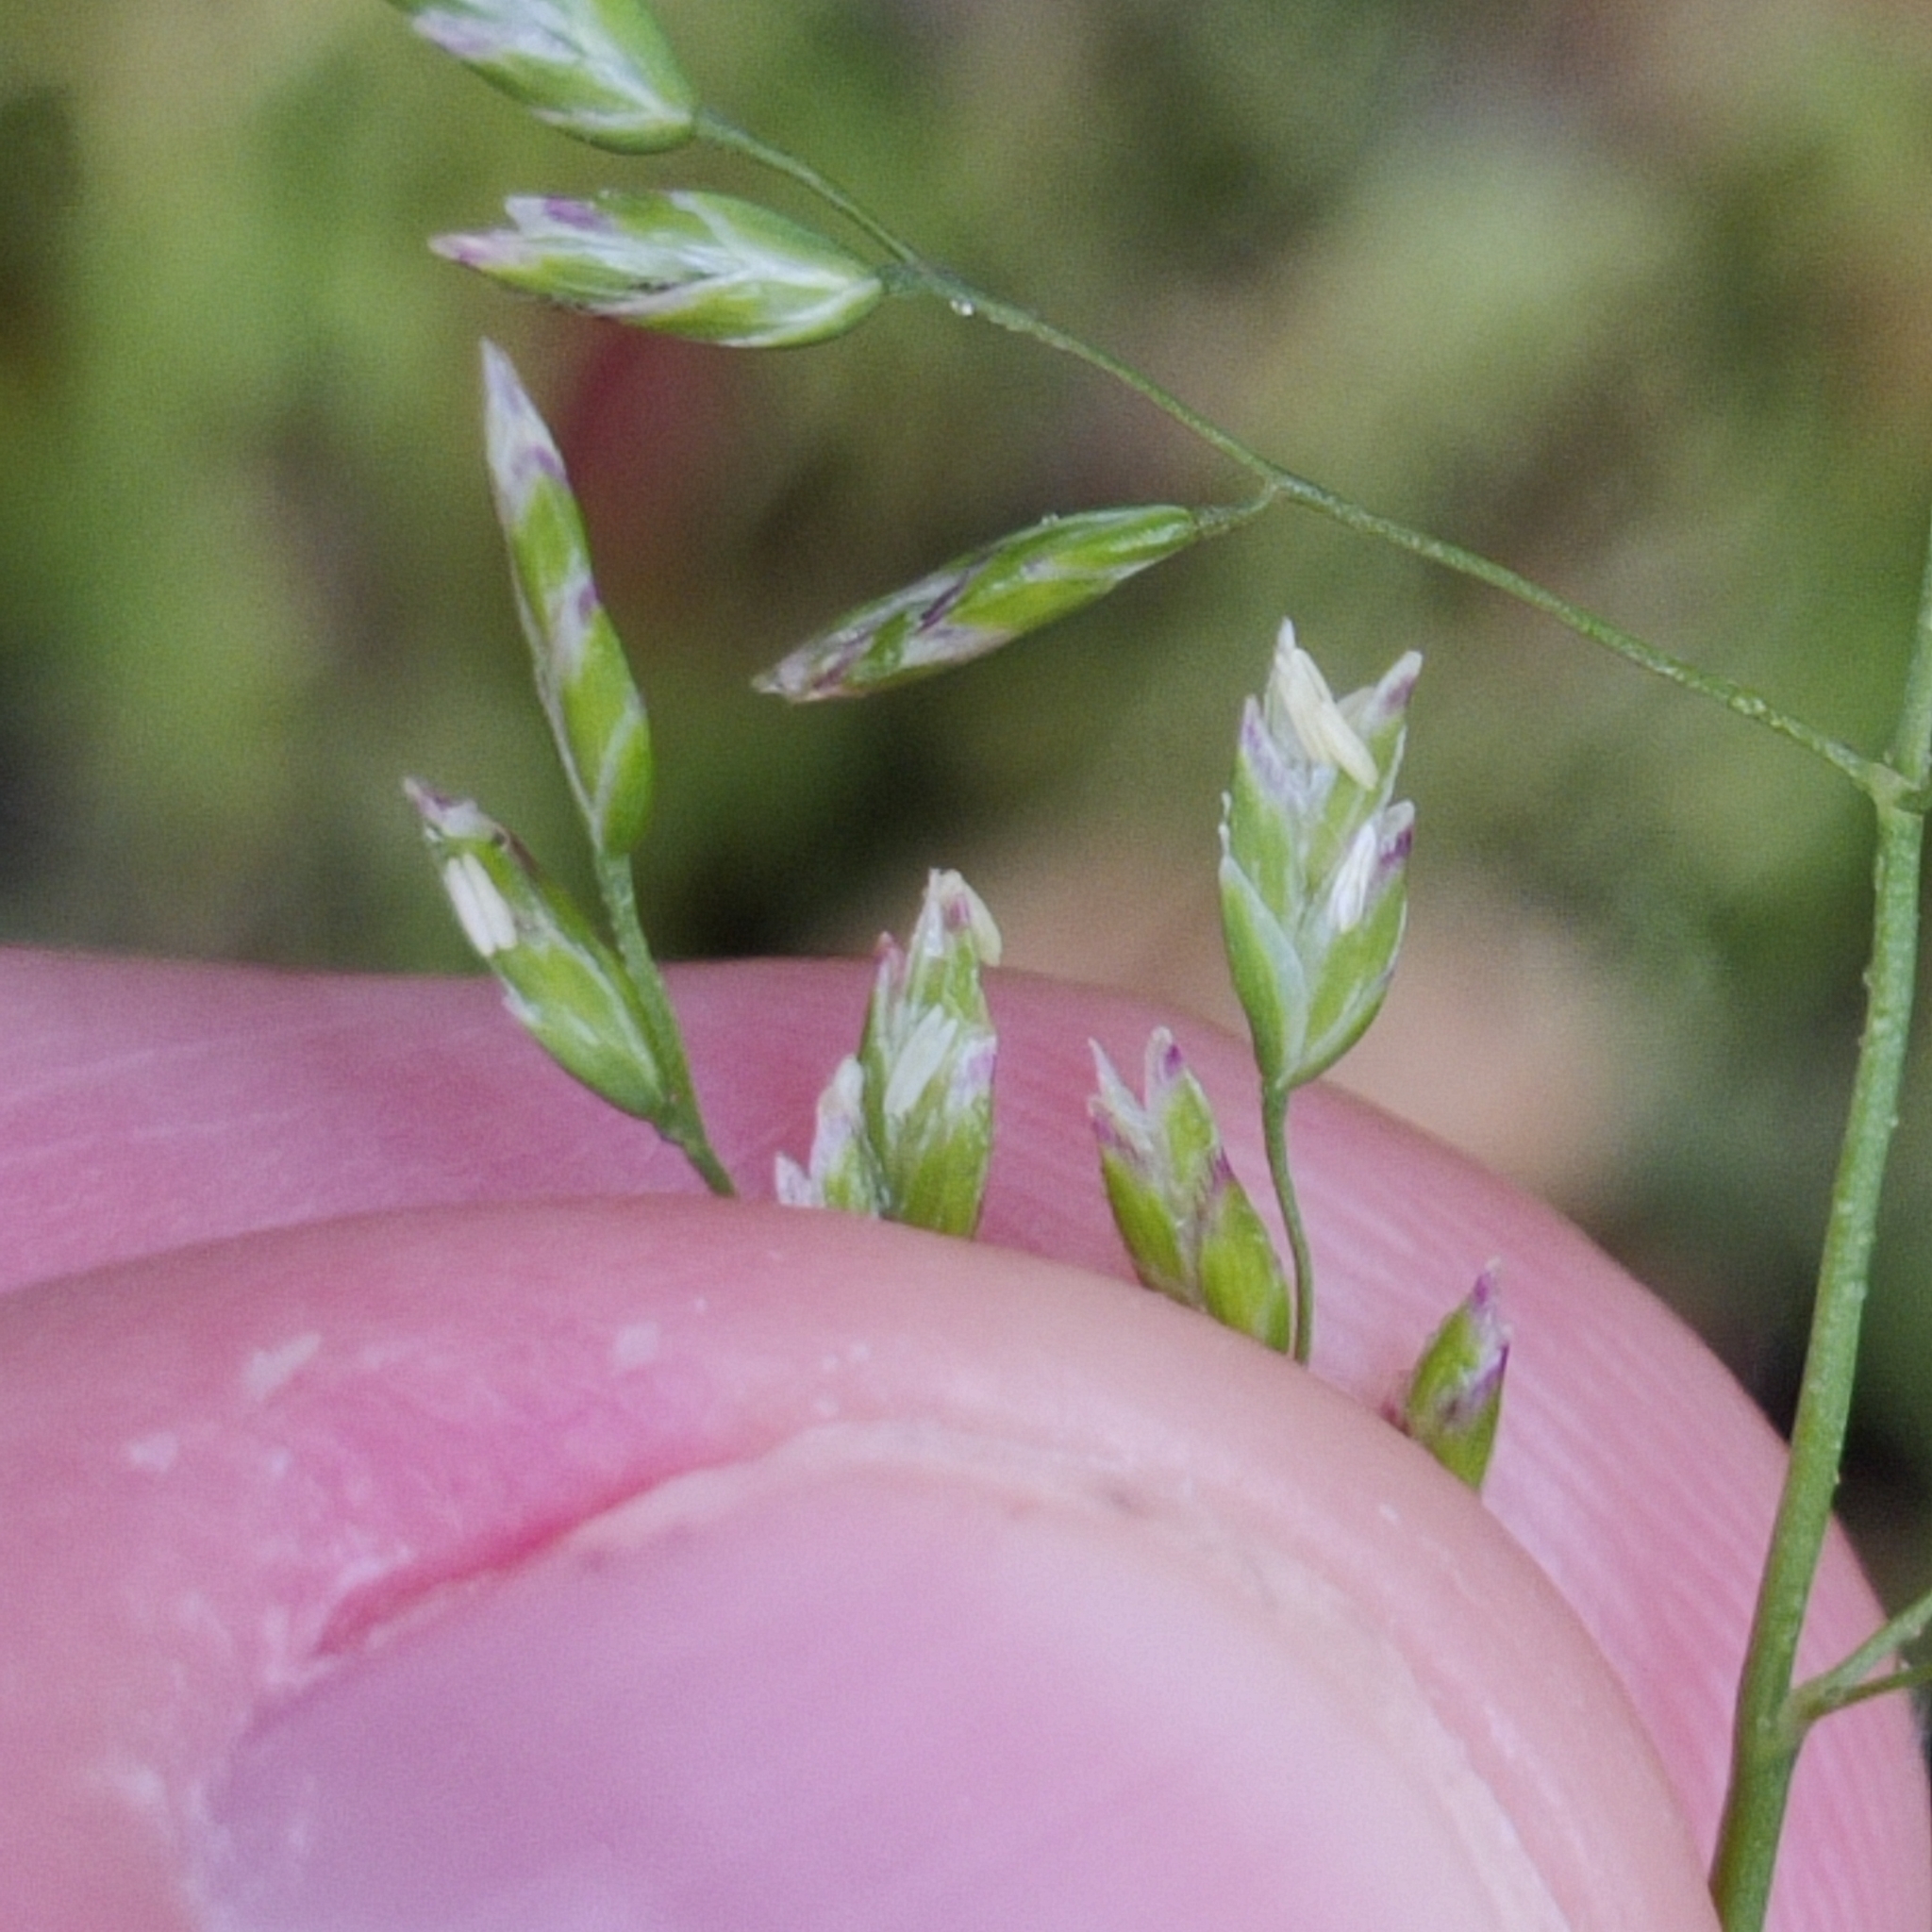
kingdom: Plantae
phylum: Tracheophyta
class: Liliopsida
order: Poales
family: Poaceae
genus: Poa
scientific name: Poa annua
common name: Annual bluegrass
